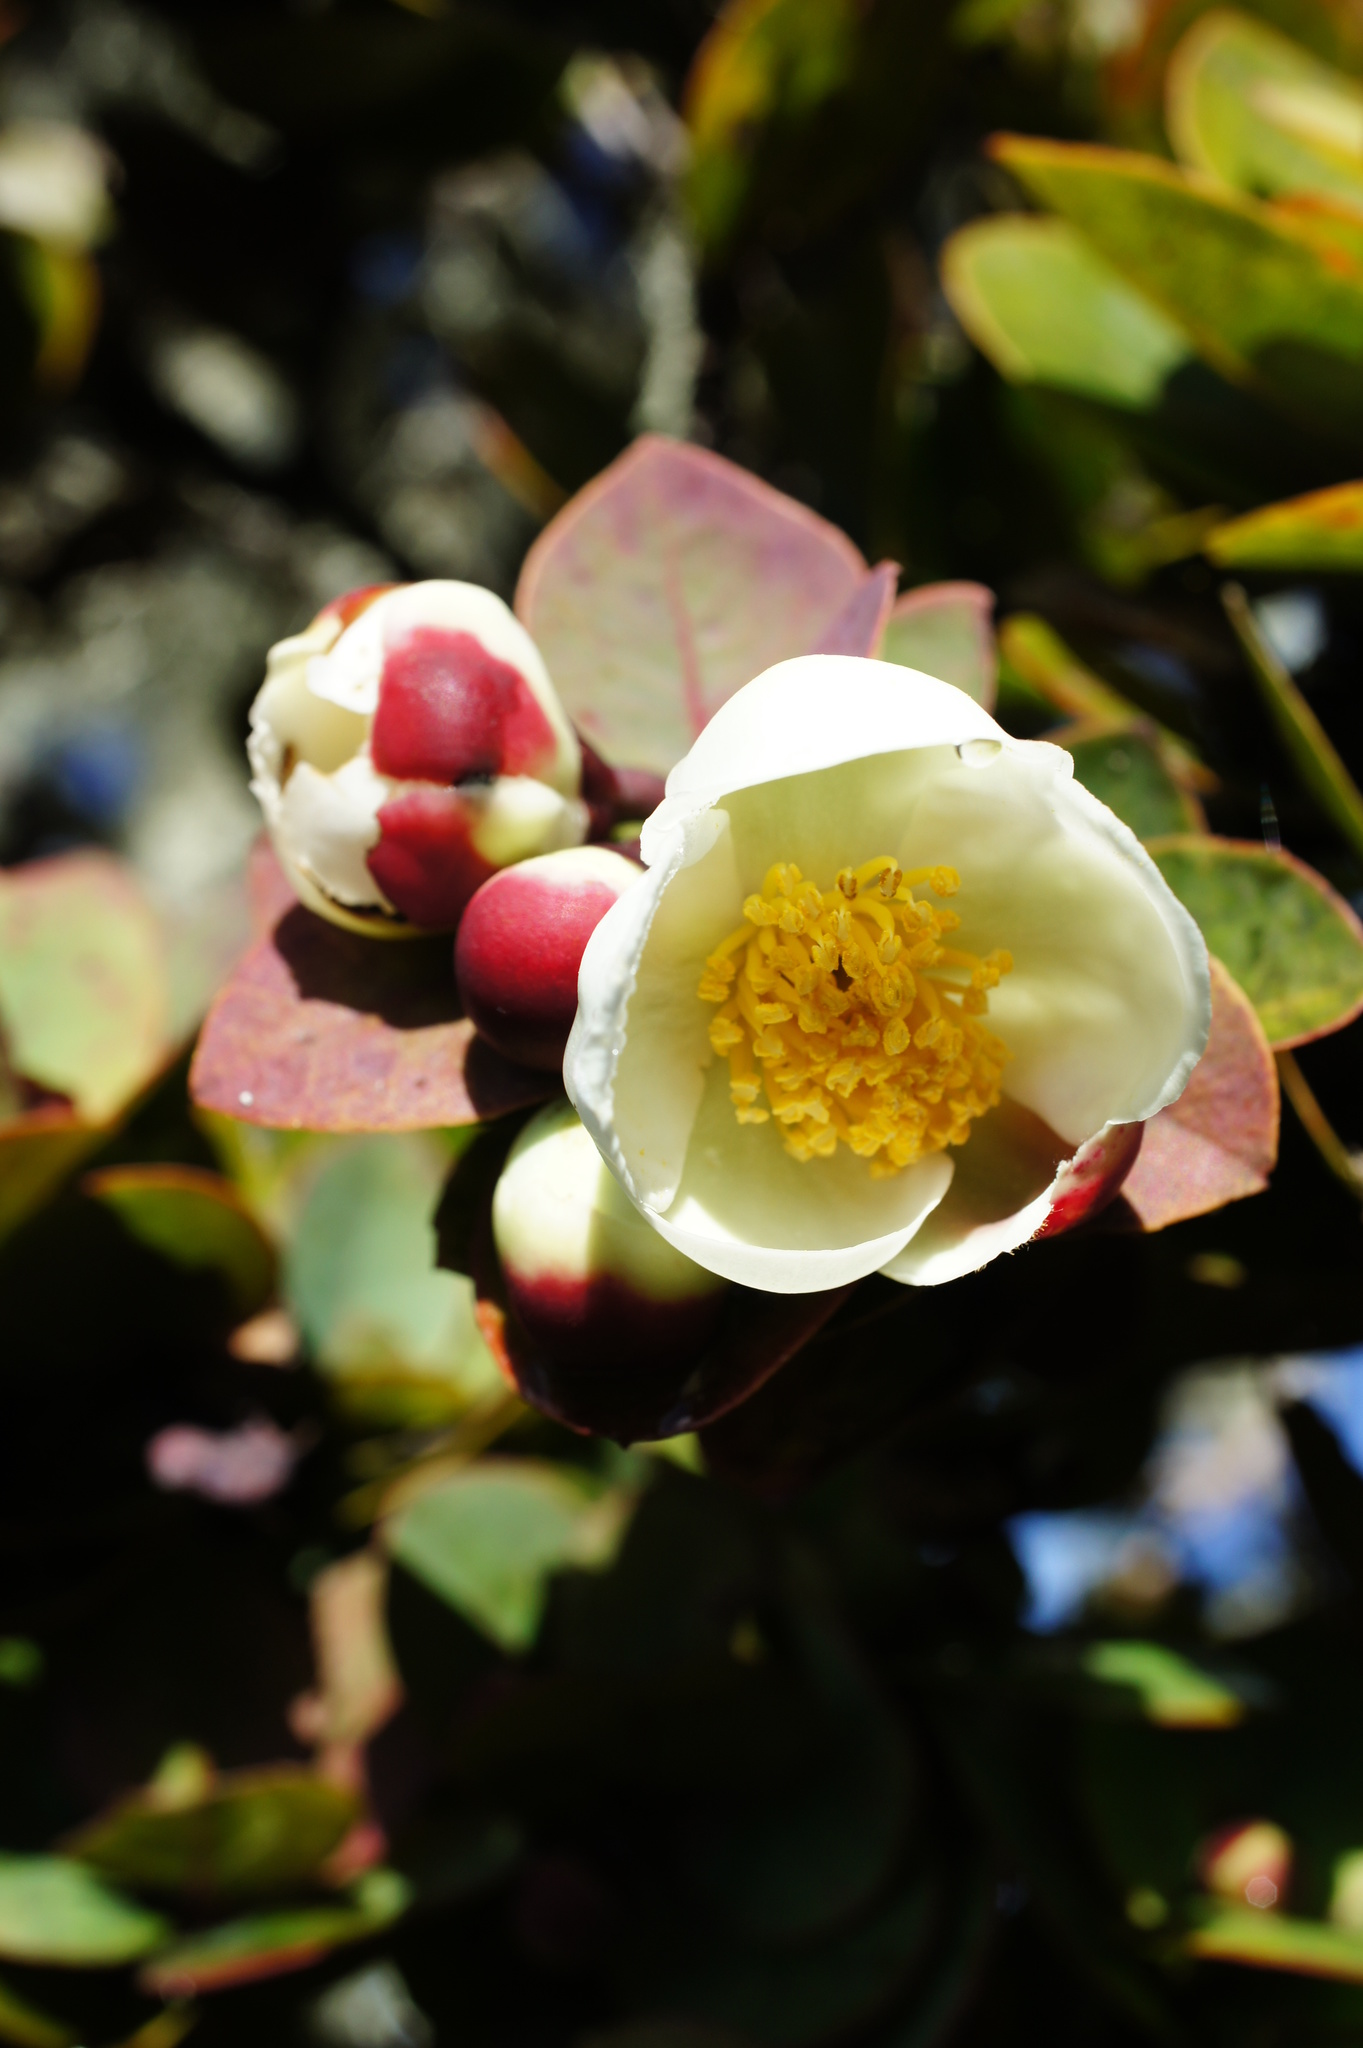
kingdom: Plantae
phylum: Tracheophyta
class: Magnoliopsida
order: Ericales
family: Theaceae
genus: Schima
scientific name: Schima brevifolia
